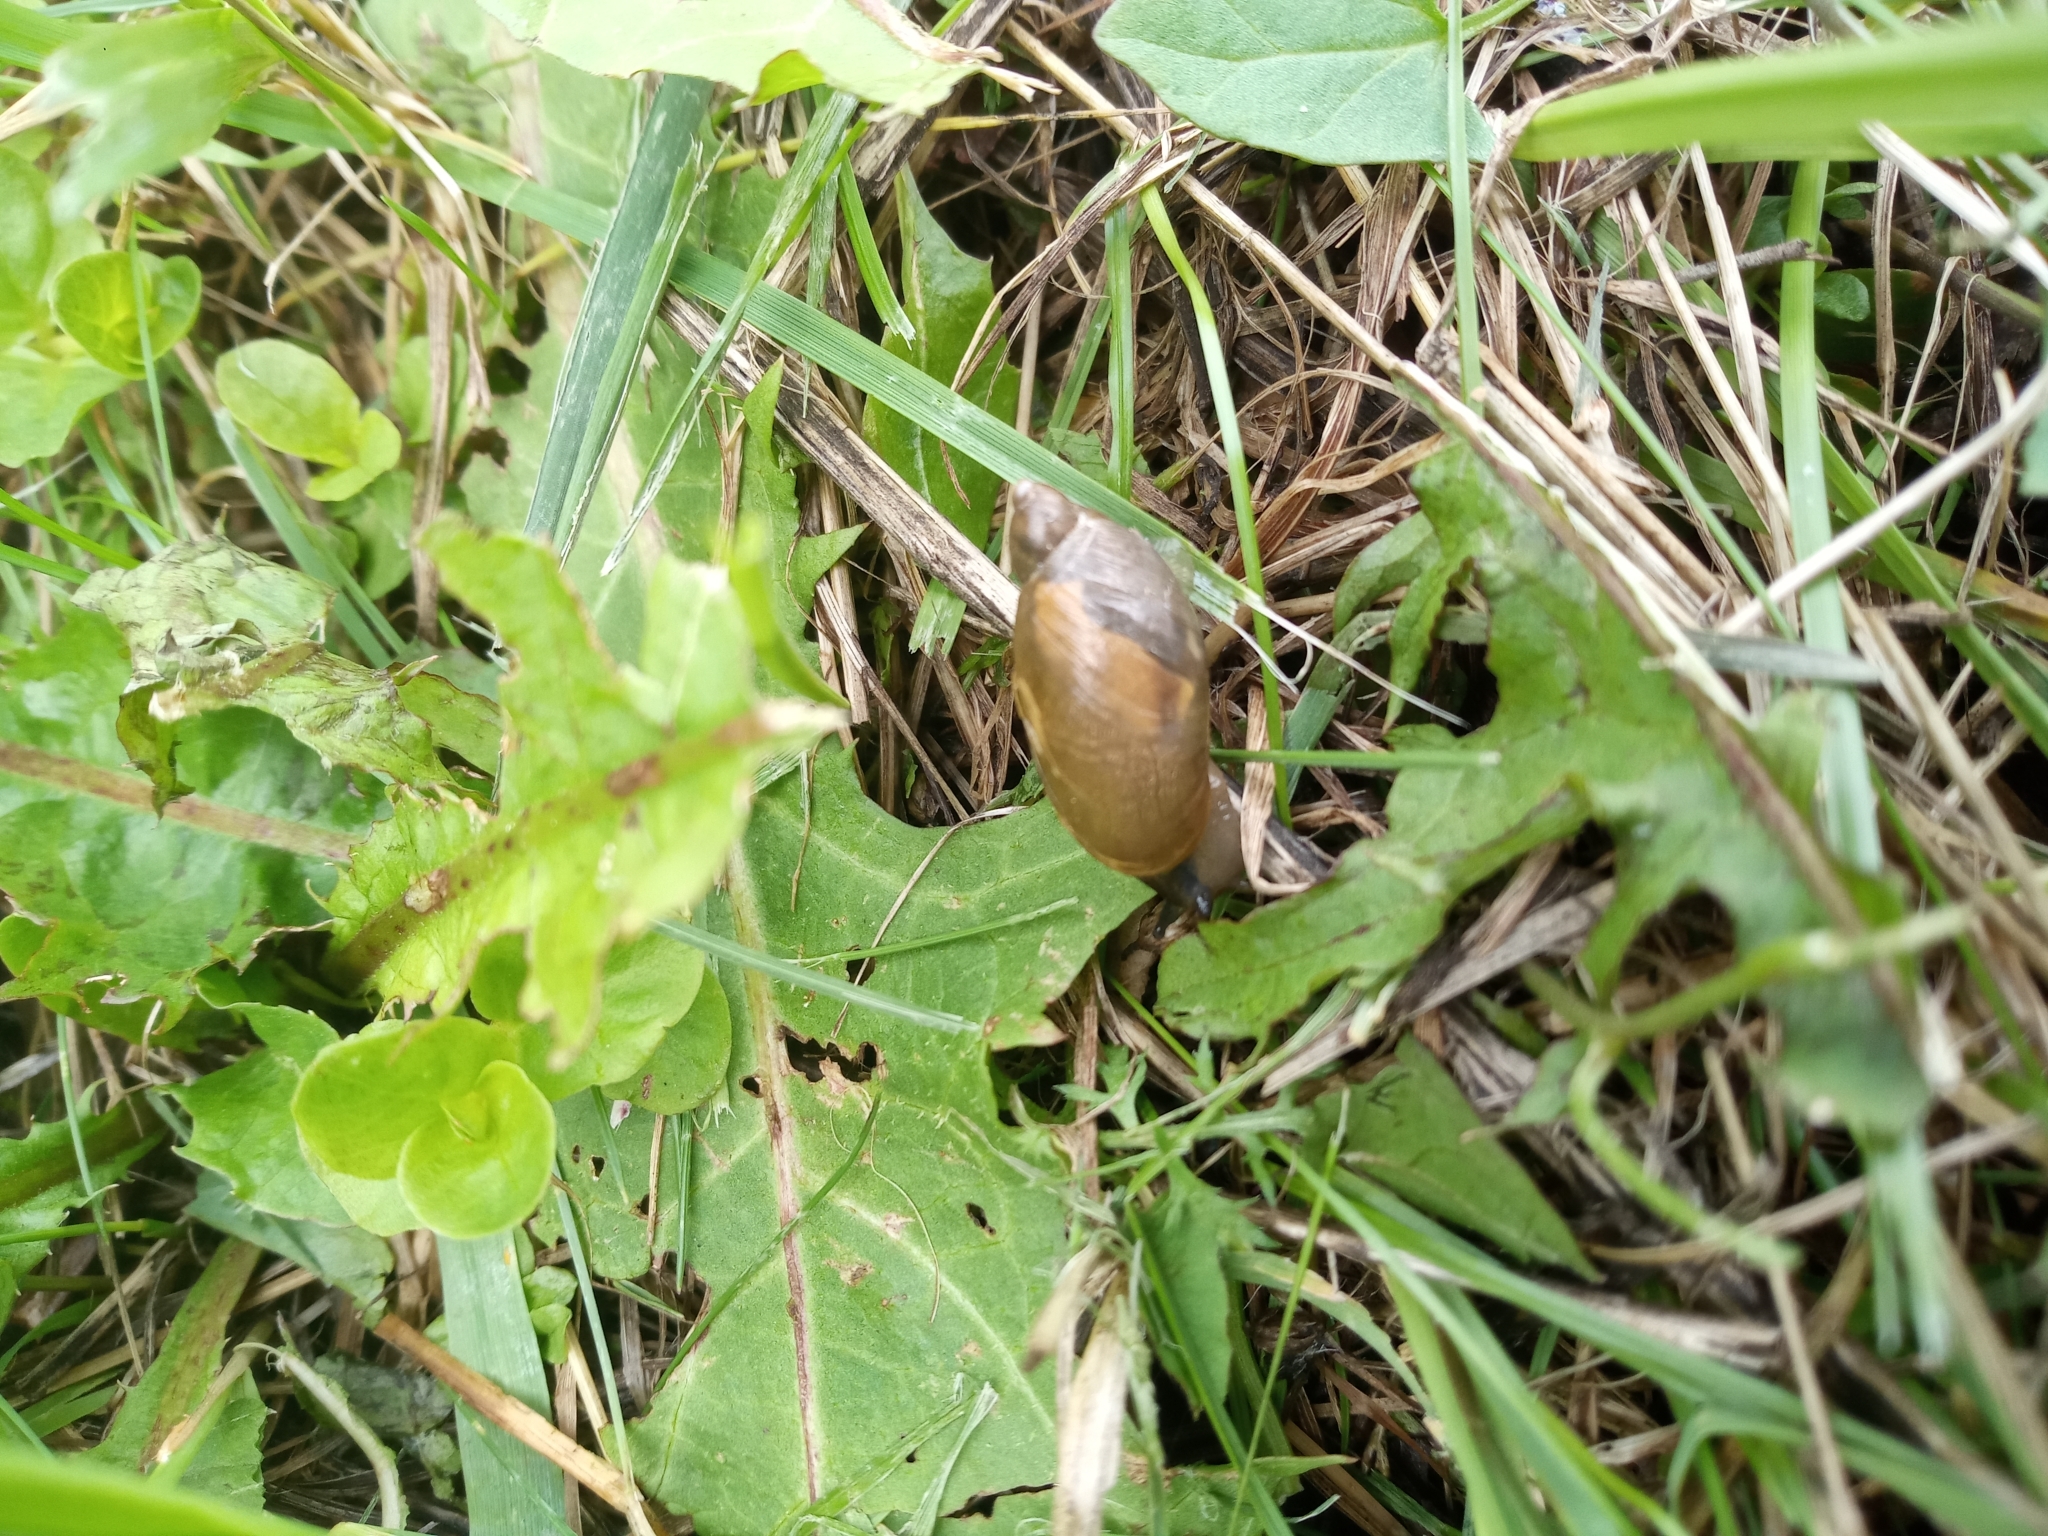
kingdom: Animalia
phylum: Mollusca
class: Gastropoda
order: Stylommatophora
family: Succineidae
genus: Succinea
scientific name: Succinea putris
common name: European ambersnail
